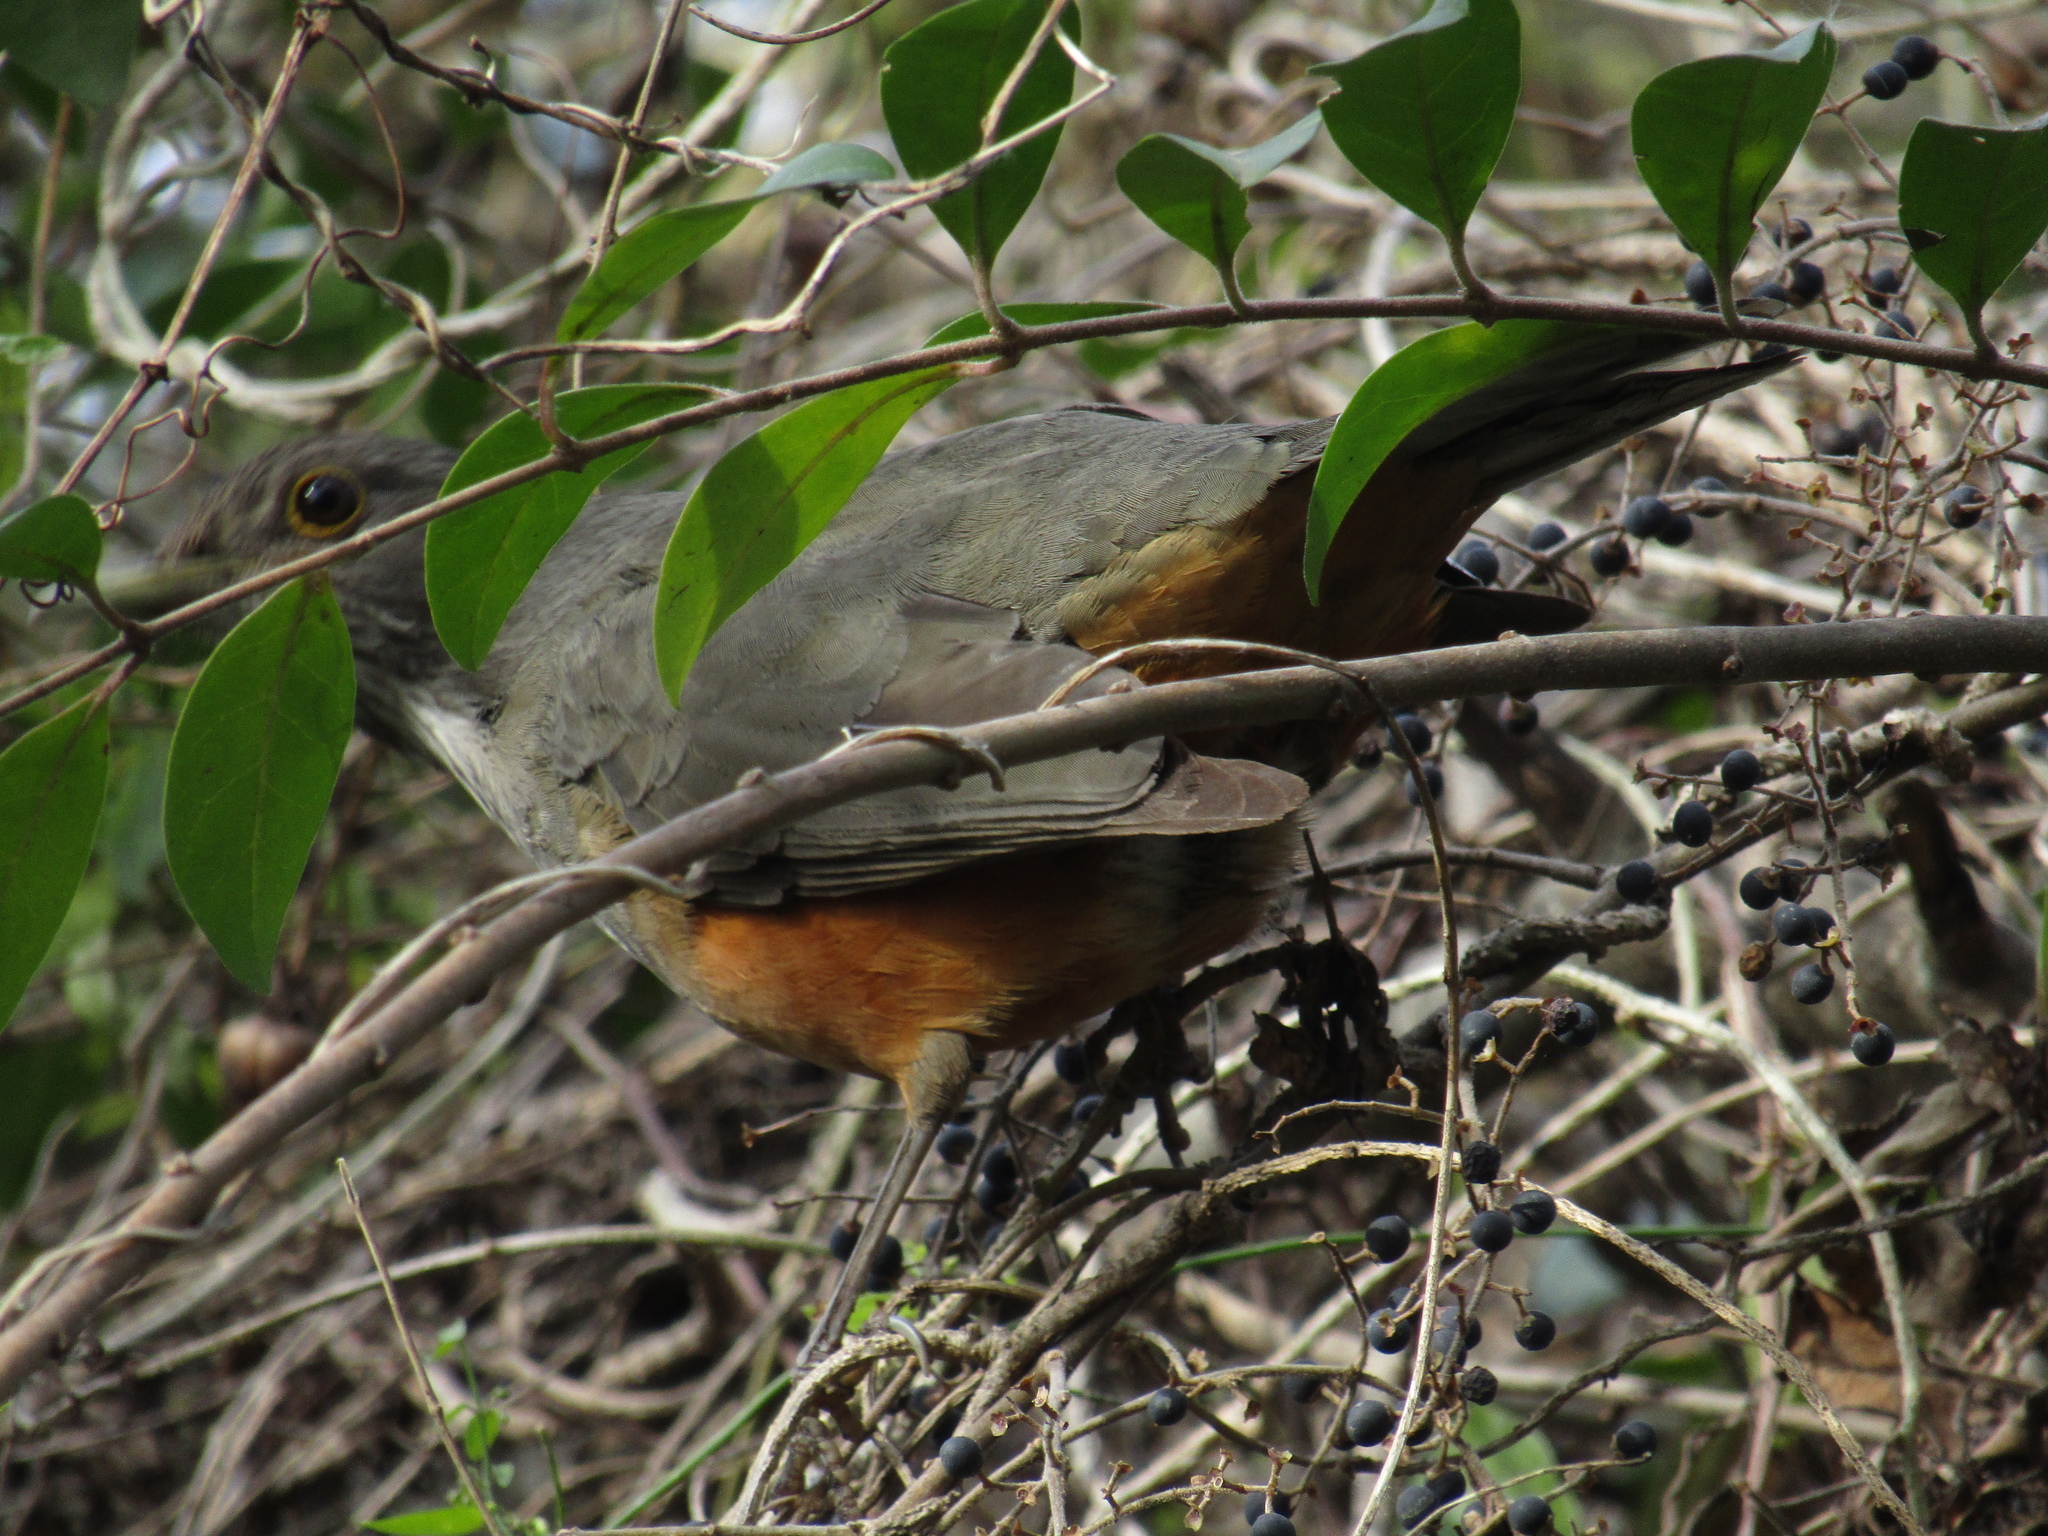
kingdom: Animalia
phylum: Chordata
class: Aves
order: Passeriformes
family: Turdidae
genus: Turdus
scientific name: Turdus rufiventris
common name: Rufous-bellied thrush
